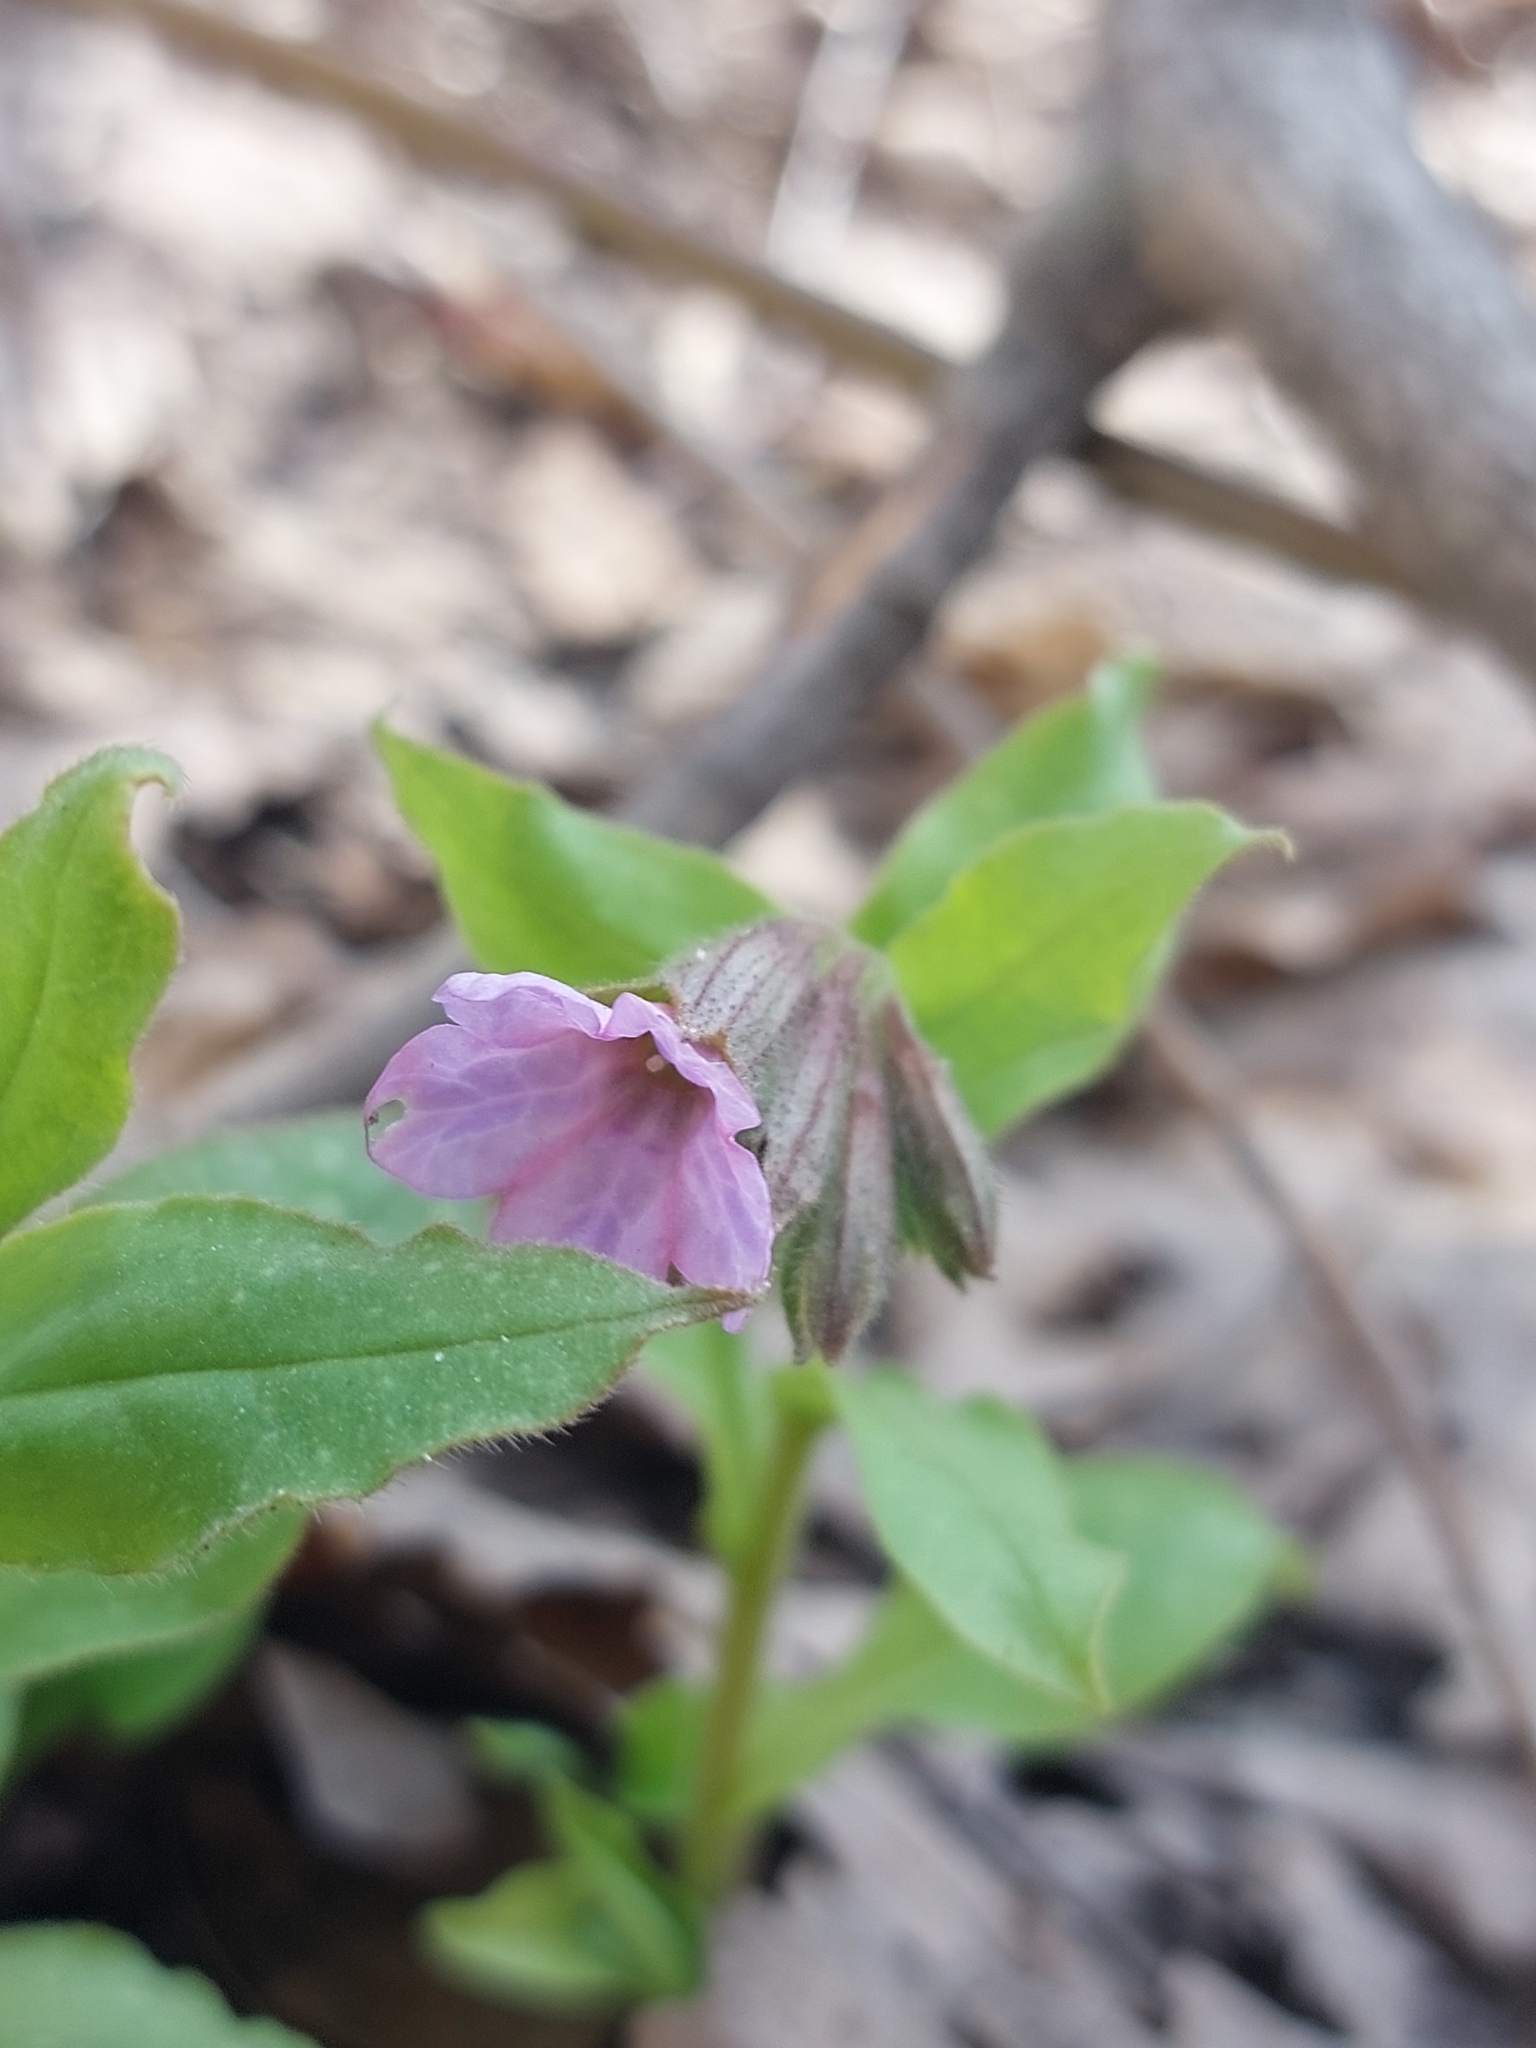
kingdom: Plantae
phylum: Tracheophyta
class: Magnoliopsida
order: Boraginales
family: Boraginaceae
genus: Pulmonaria
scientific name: Pulmonaria obscura
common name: Suffolk lungwort
